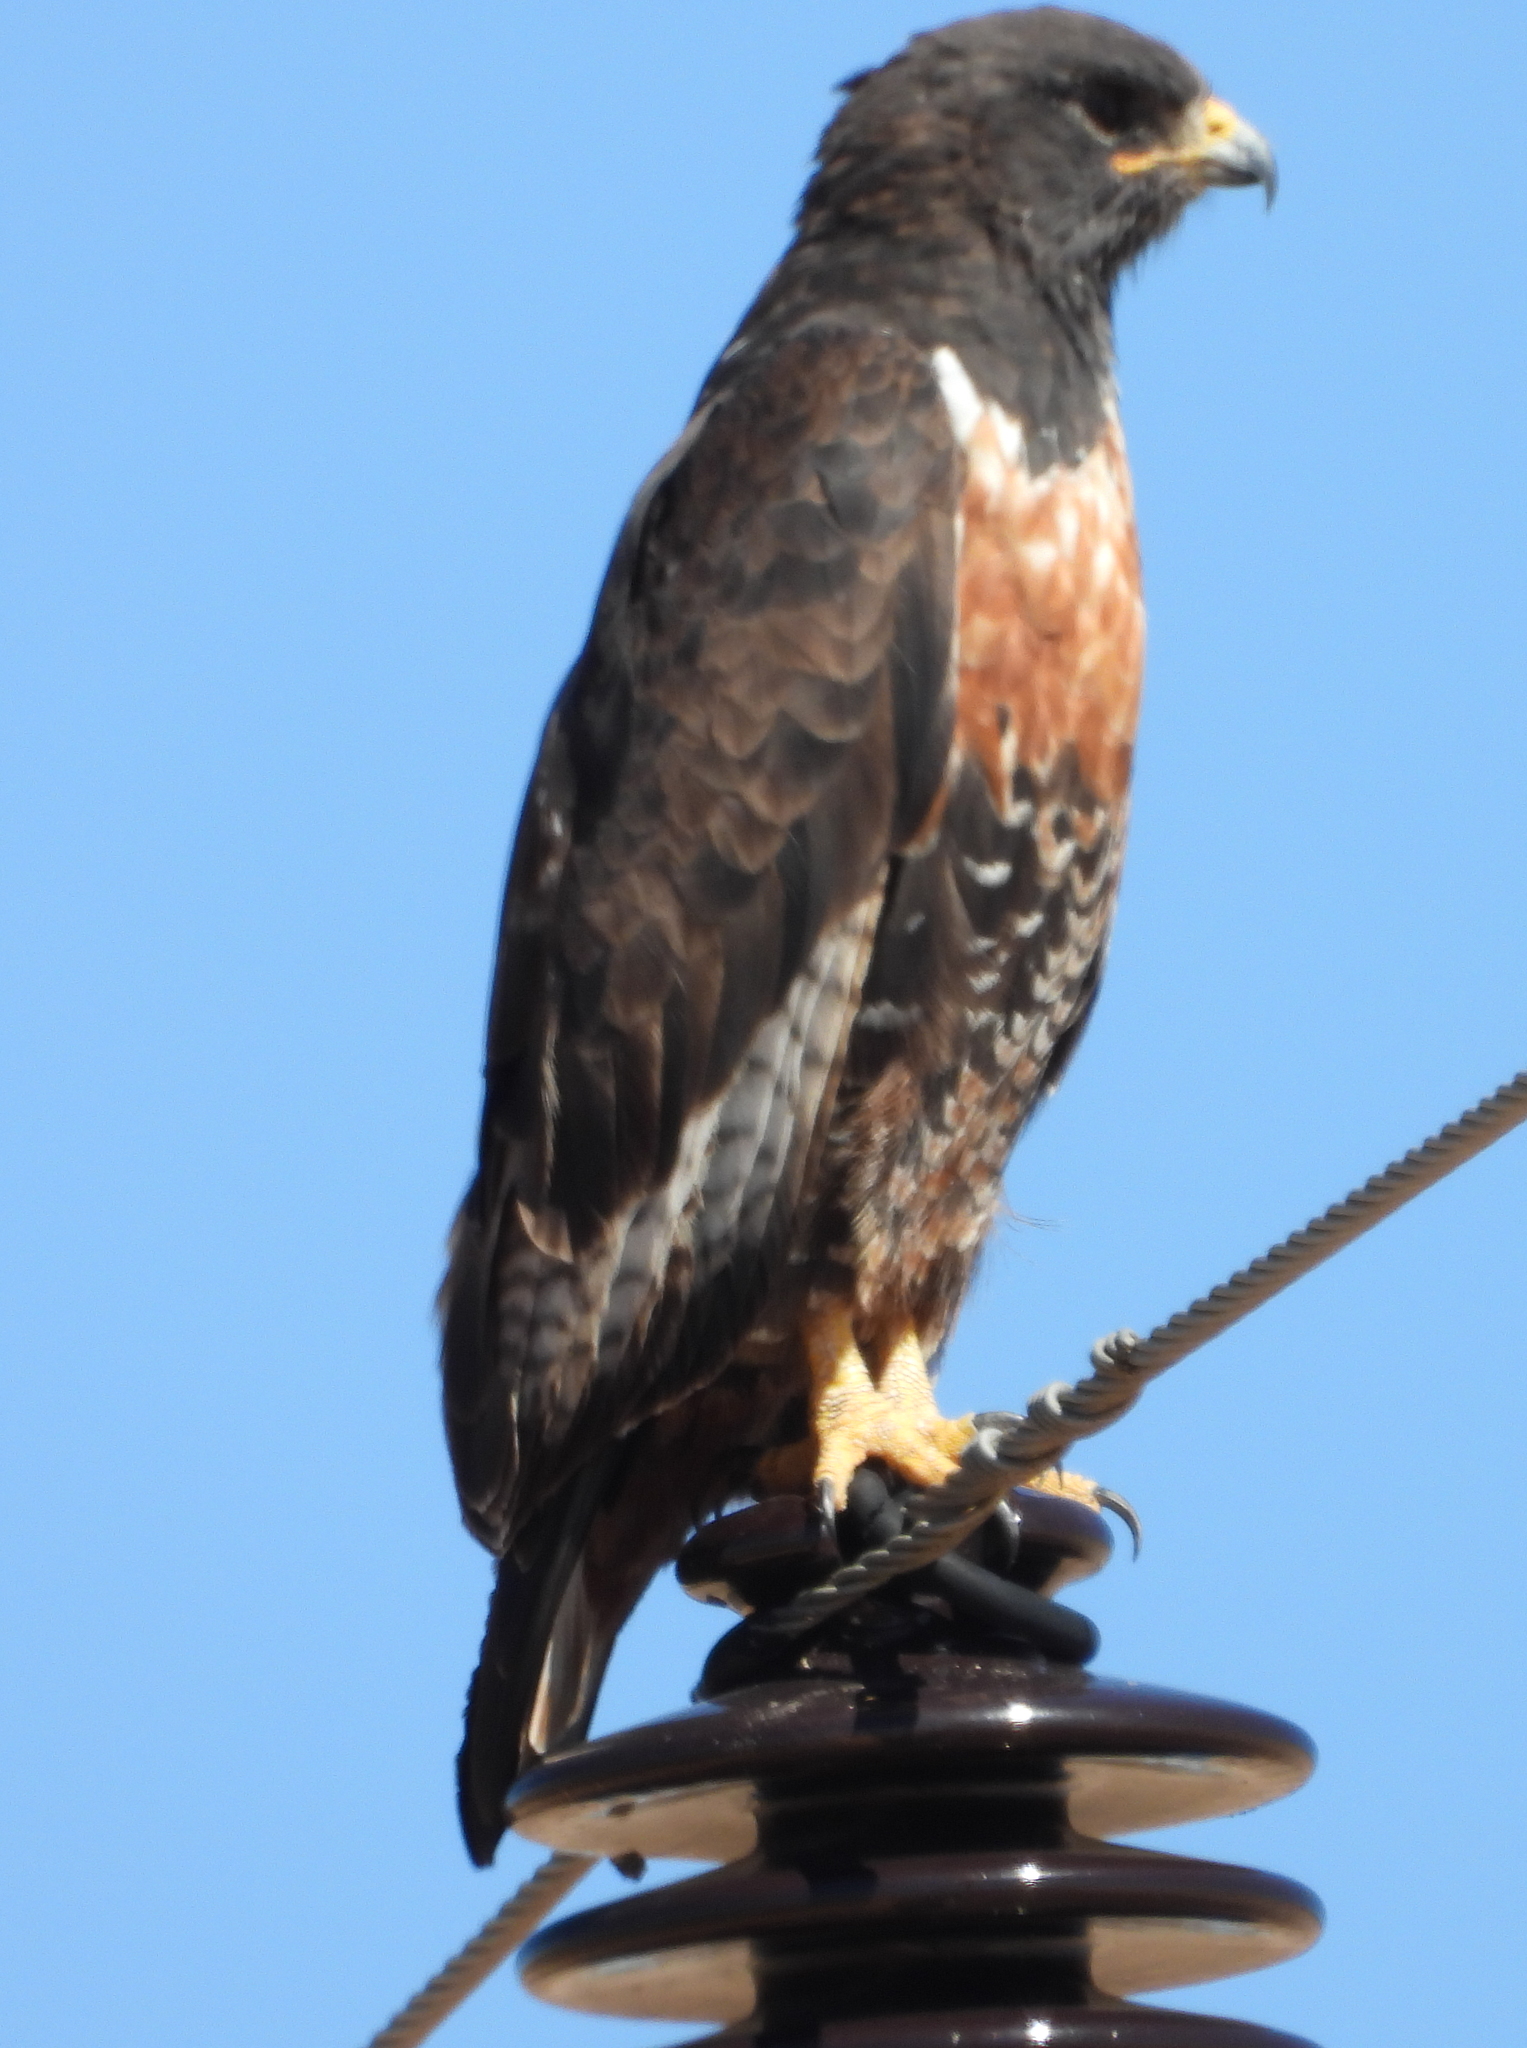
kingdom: Animalia
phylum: Chordata
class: Aves
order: Accipitriformes
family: Accipitridae
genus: Buteo
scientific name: Buteo rufofuscus
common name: Jackal buzzard
